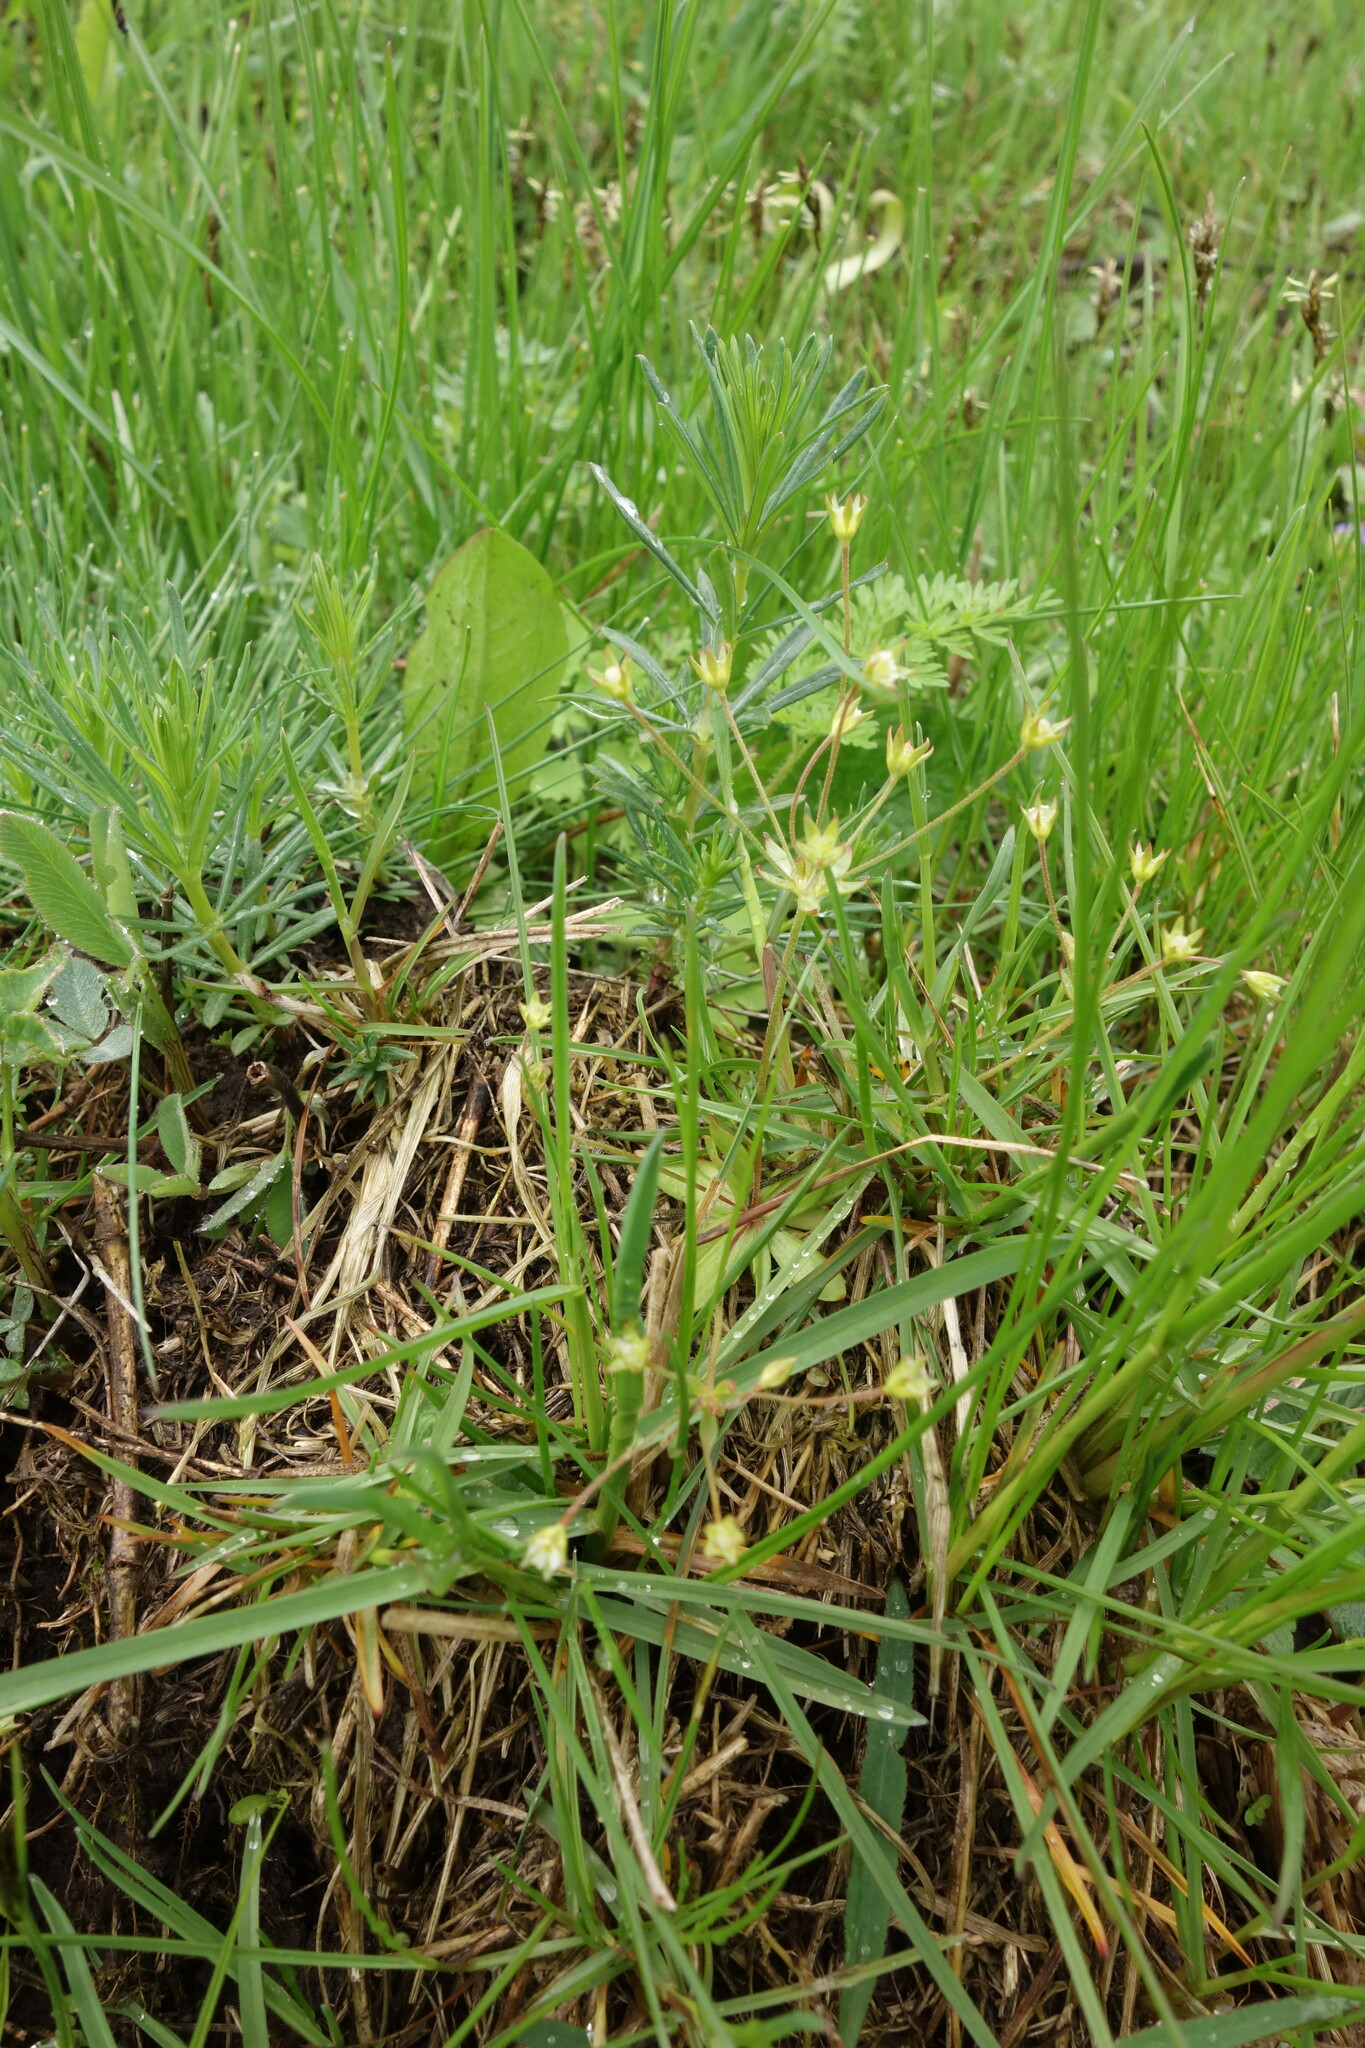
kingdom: Plantae
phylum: Tracheophyta
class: Magnoliopsida
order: Ericales
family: Primulaceae
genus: Androsace
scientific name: Androsace elongata
